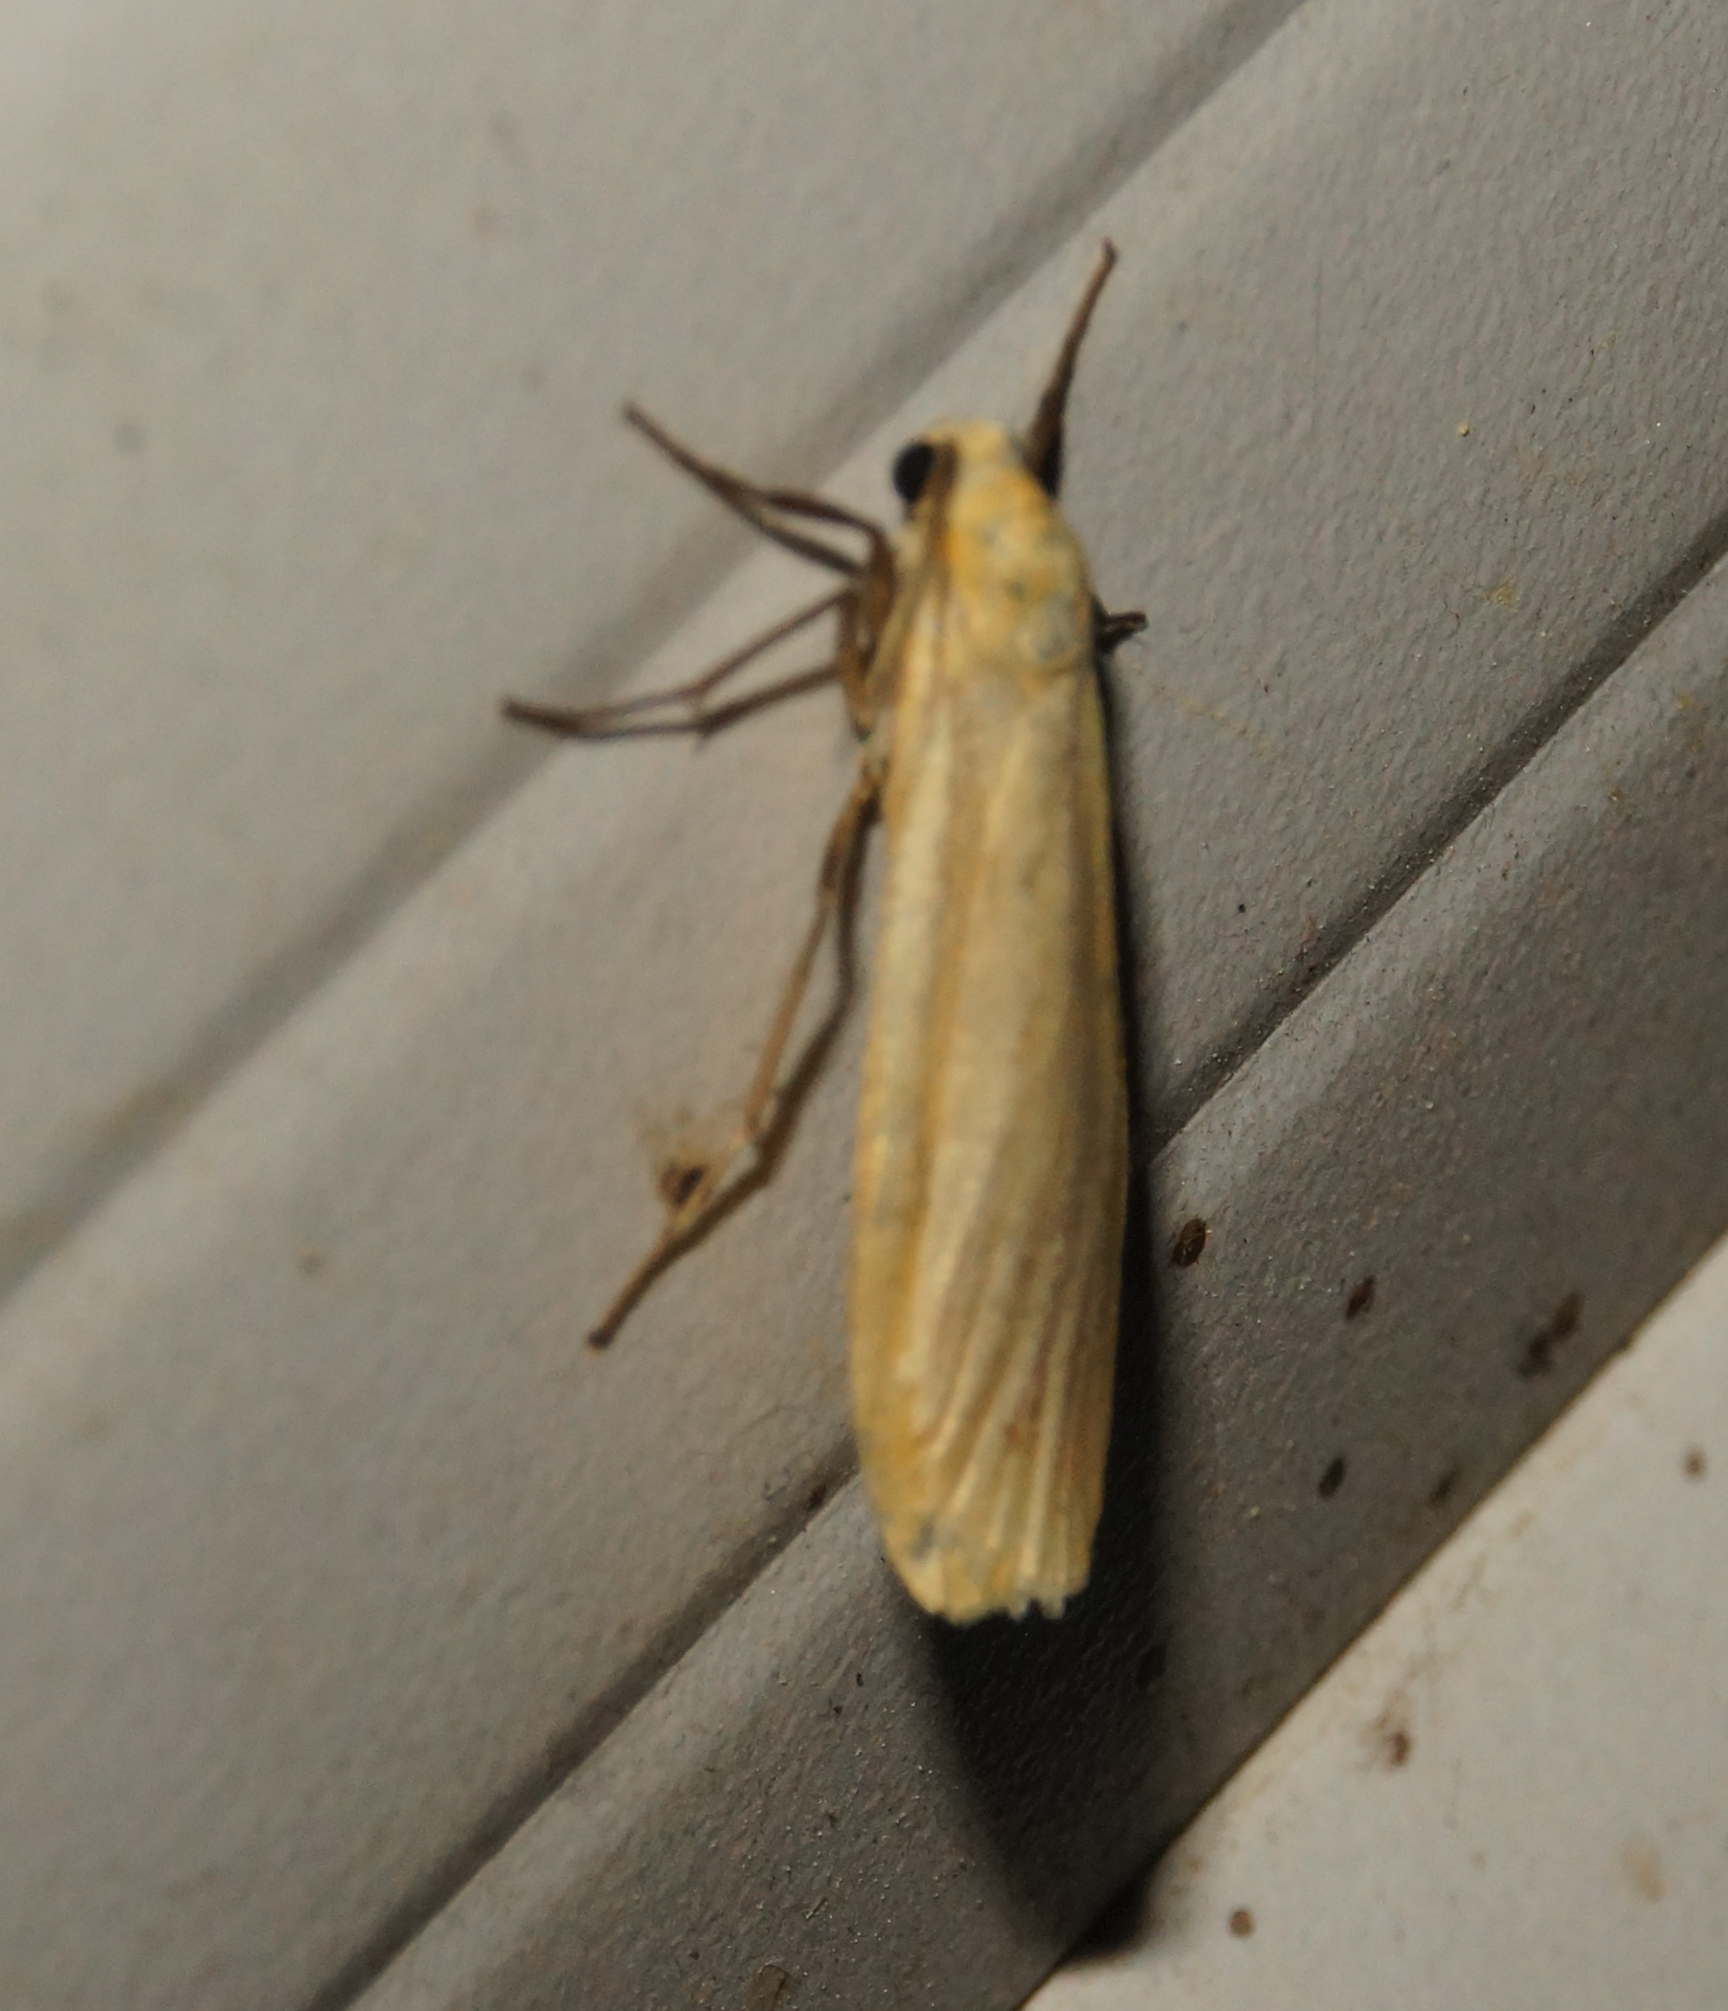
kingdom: Animalia
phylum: Arthropoda
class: Insecta
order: Lepidoptera
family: Erebidae
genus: Wittia
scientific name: Wittia sororcula
